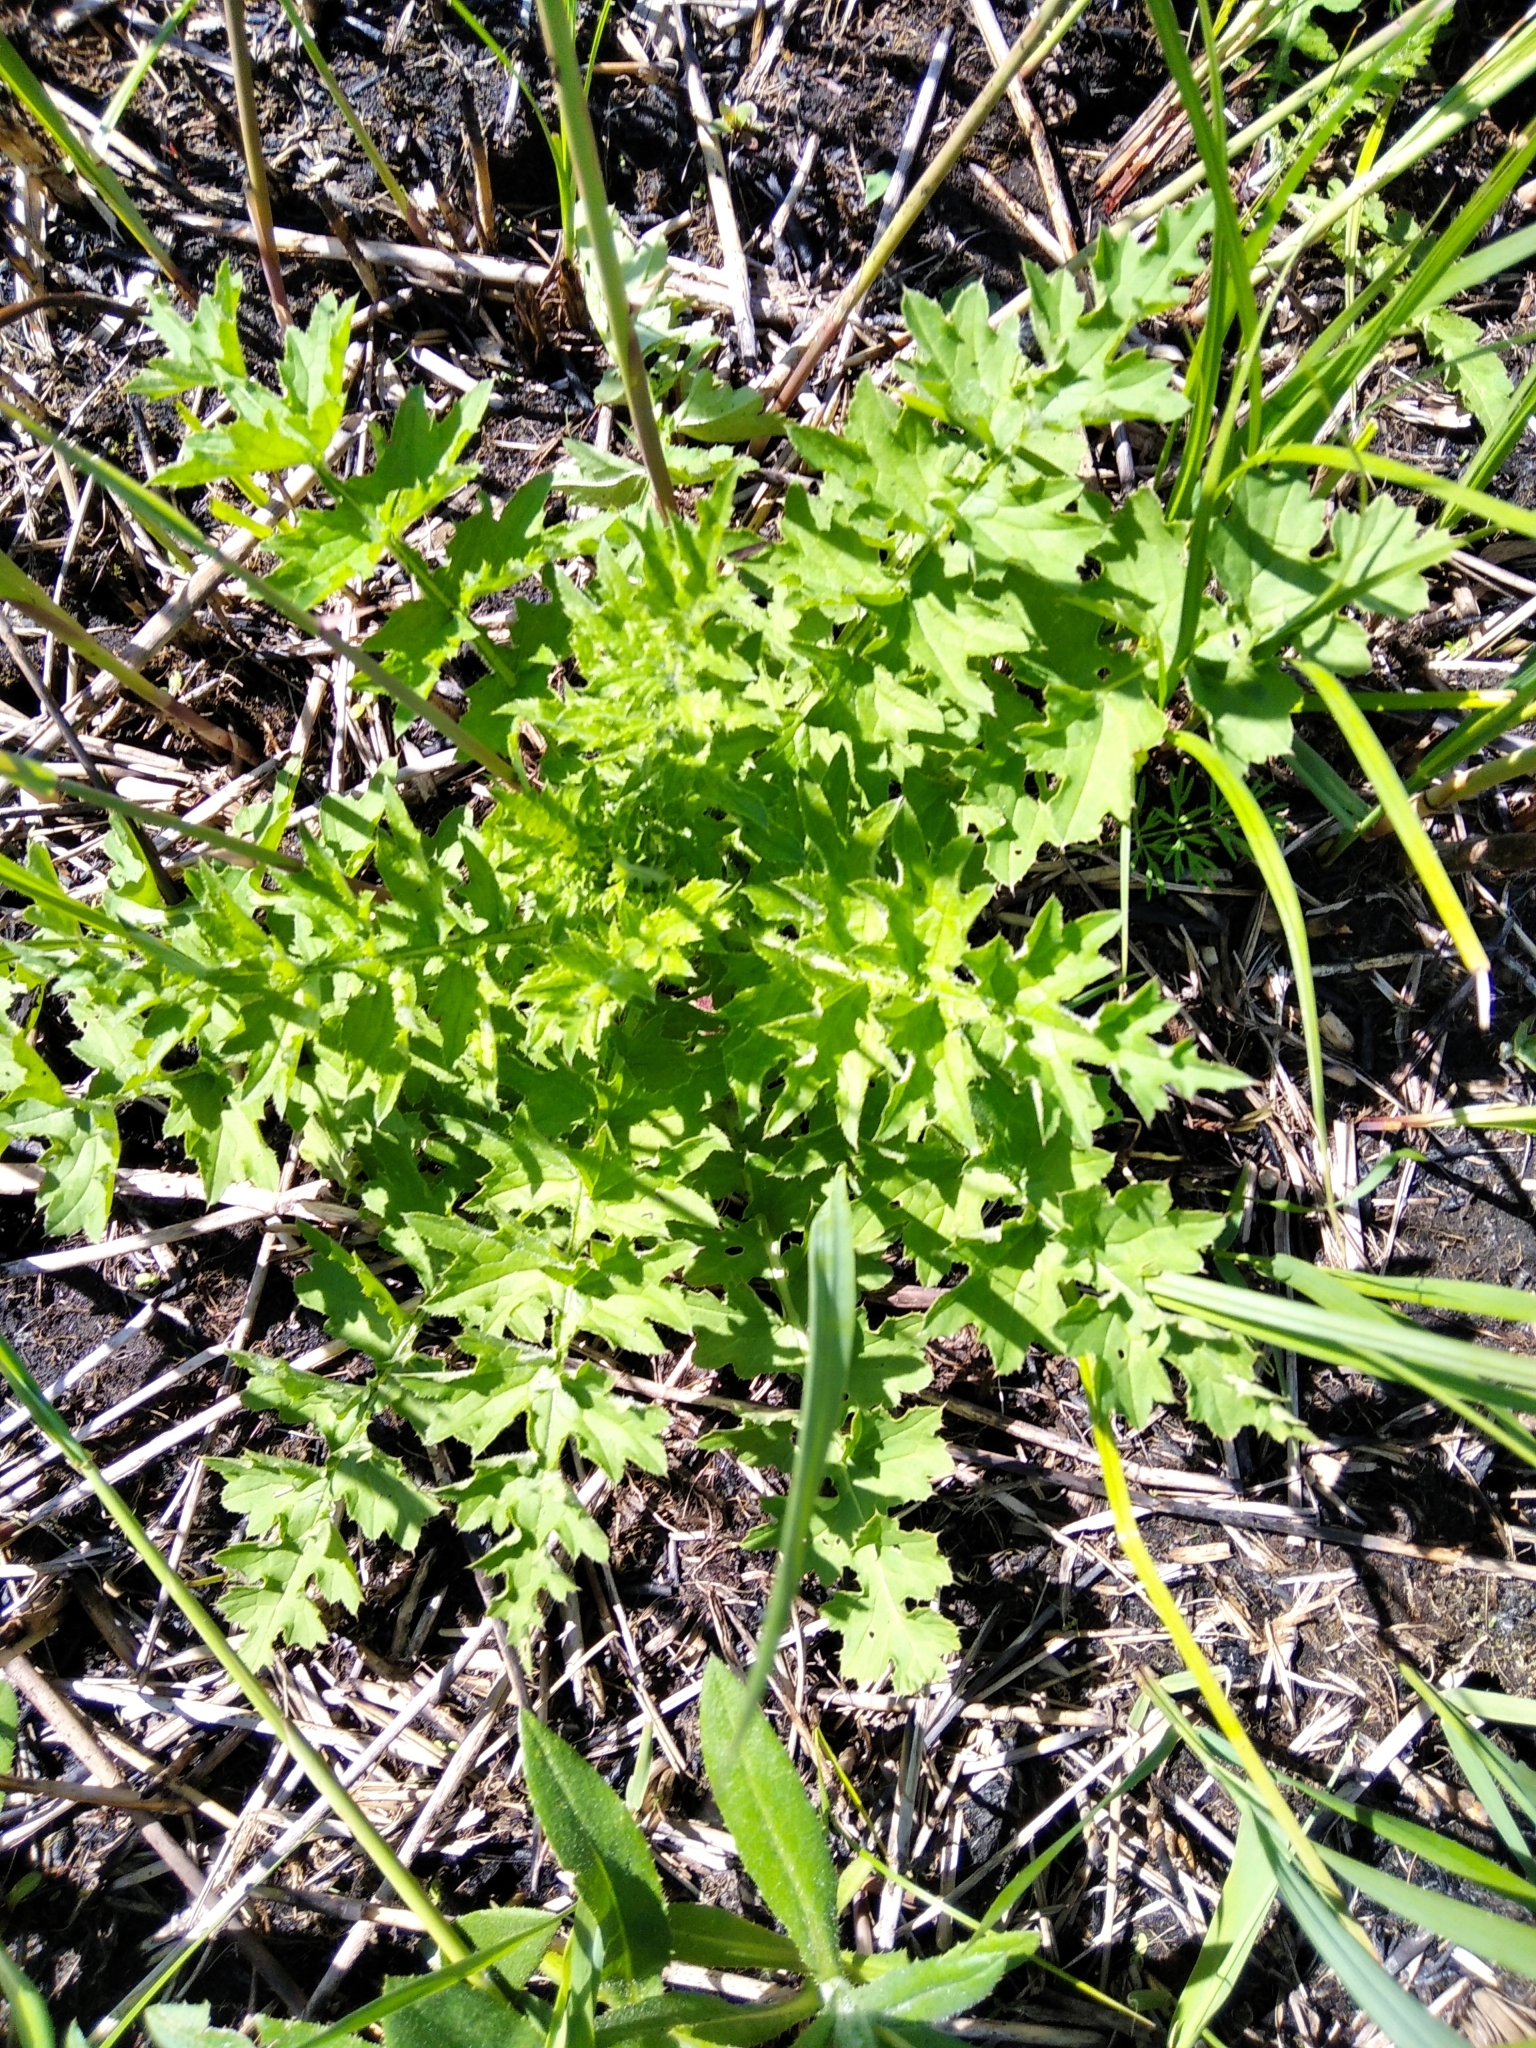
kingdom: Plantae
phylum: Tracheophyta
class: Magnoliopsida
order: Asterales
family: Asteraceae
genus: Carduus
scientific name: Carduus crispus
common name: Welted thistle
